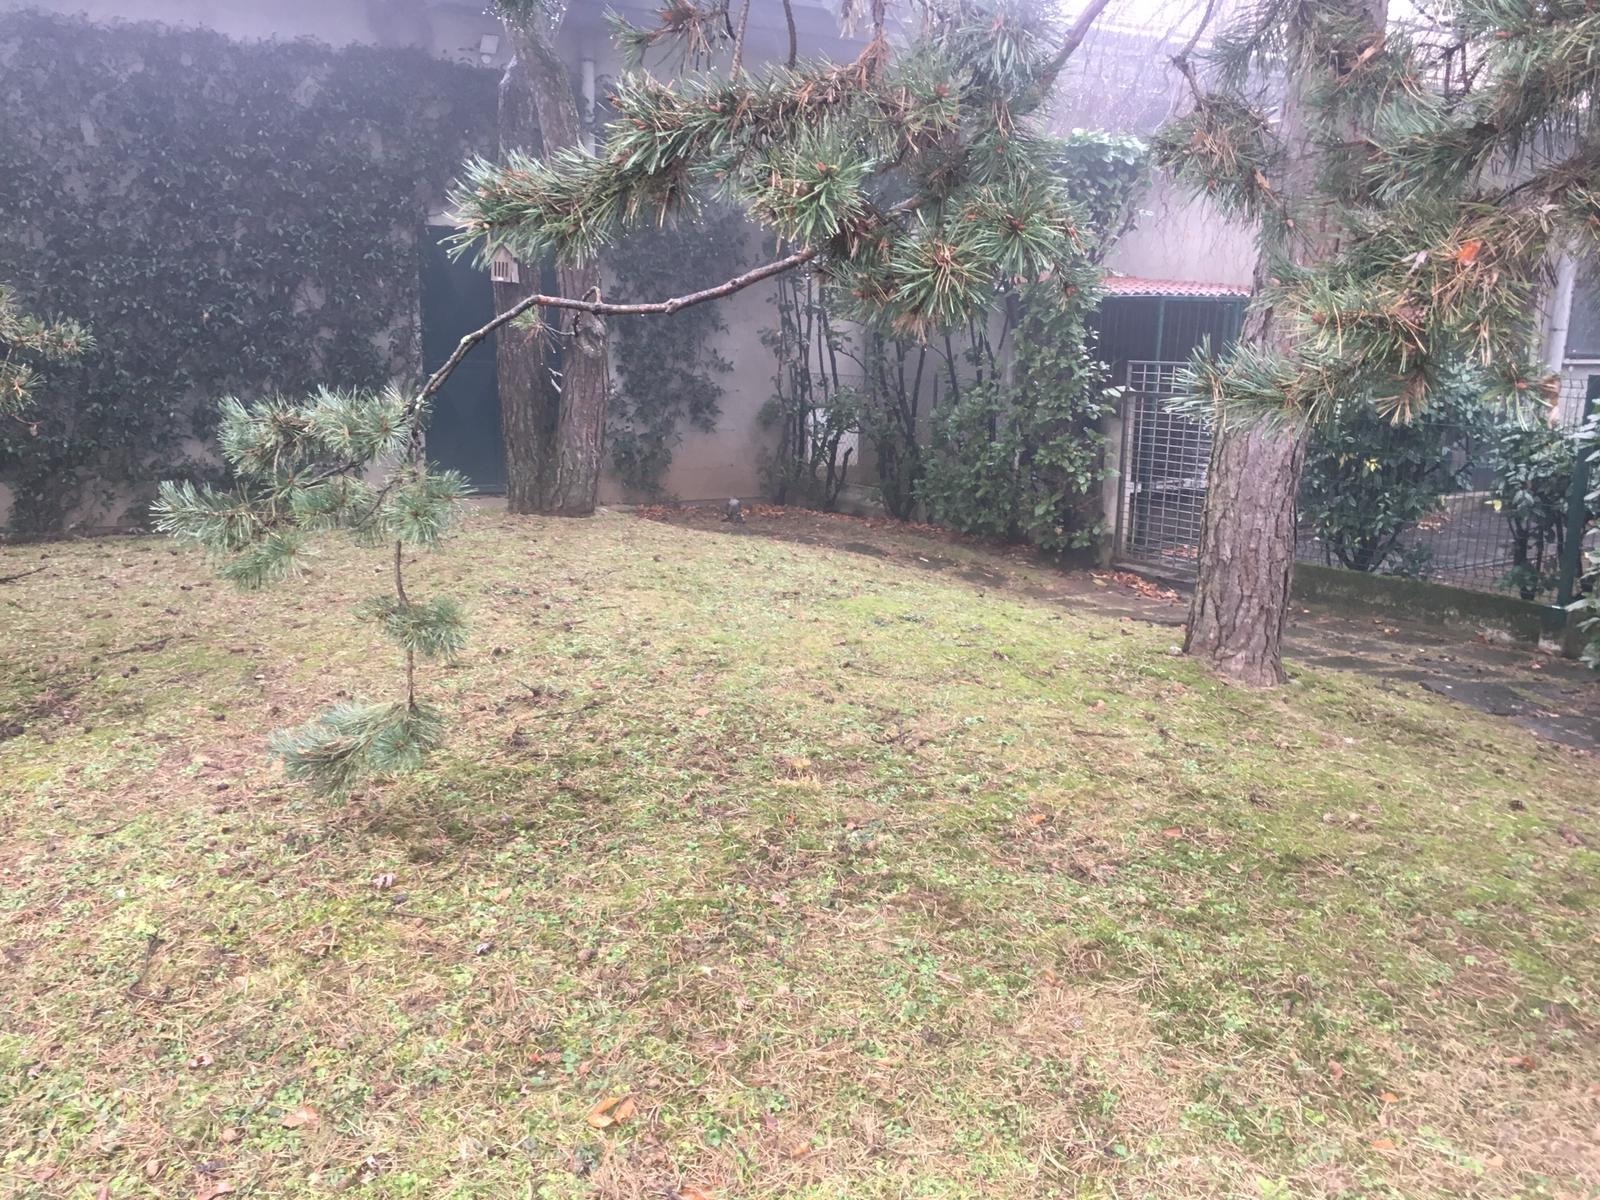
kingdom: Animalia
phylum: Chordata
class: Aves
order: Accipitriformes
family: Accipitridae
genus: Accipiter
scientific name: Accipiter
